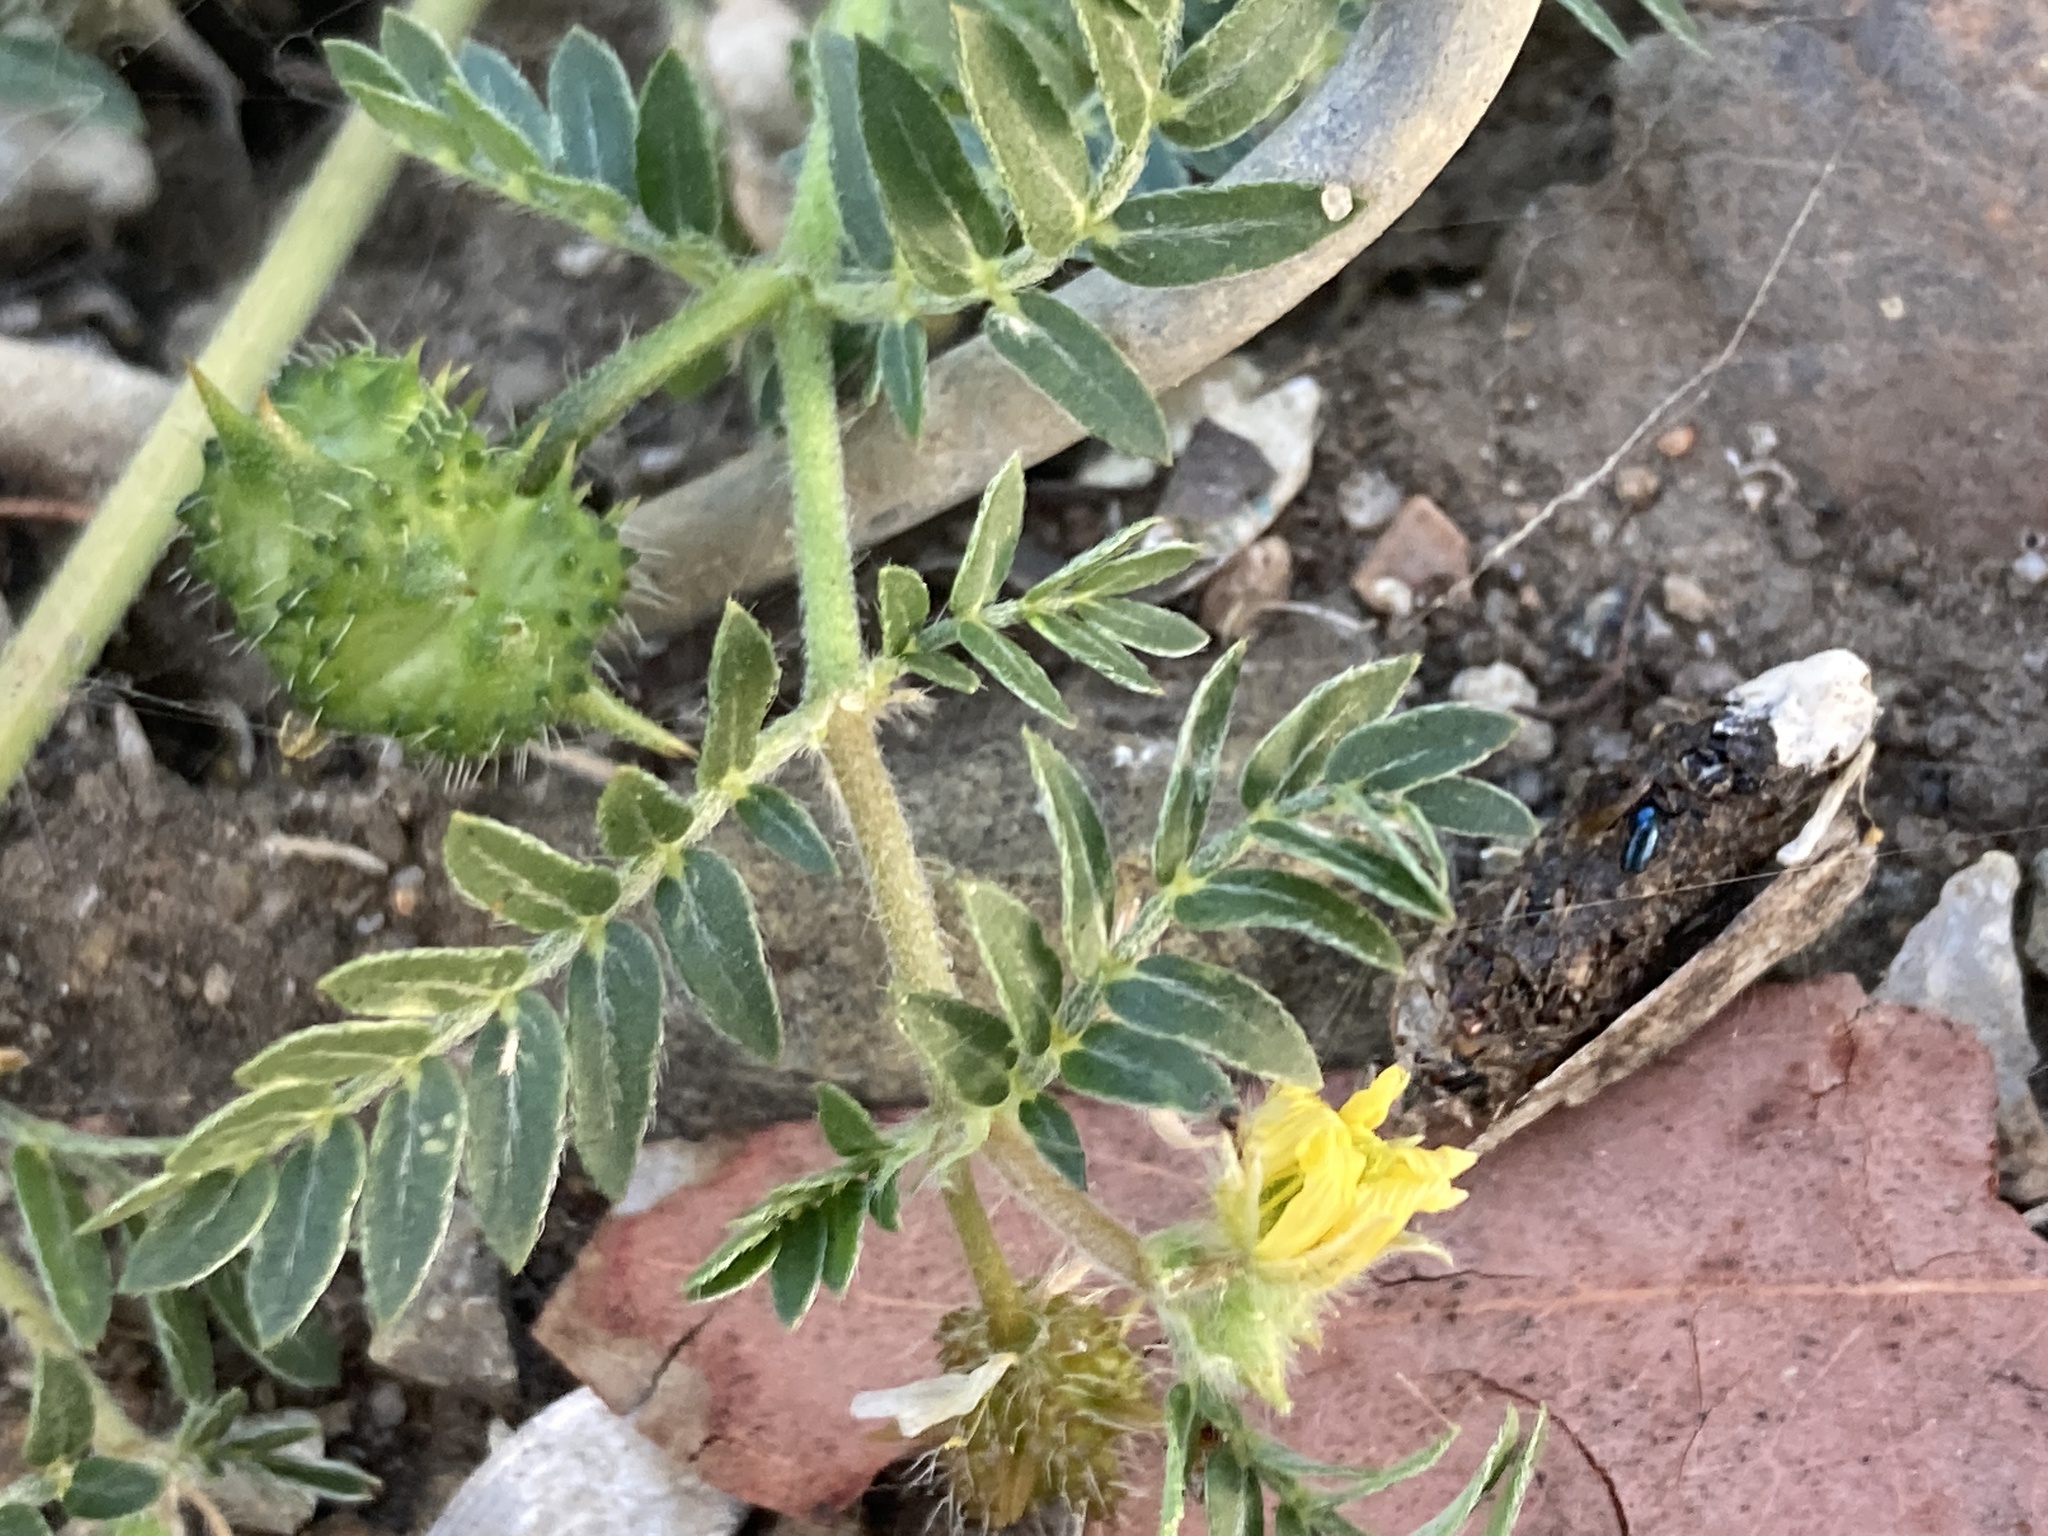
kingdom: Plantae
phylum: Tracheophyta
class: Magnoliopsida
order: Zygophyllales
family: Zygophyllaceae
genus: Tribulus
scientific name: Tribulus terrestris
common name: Puncturevine
